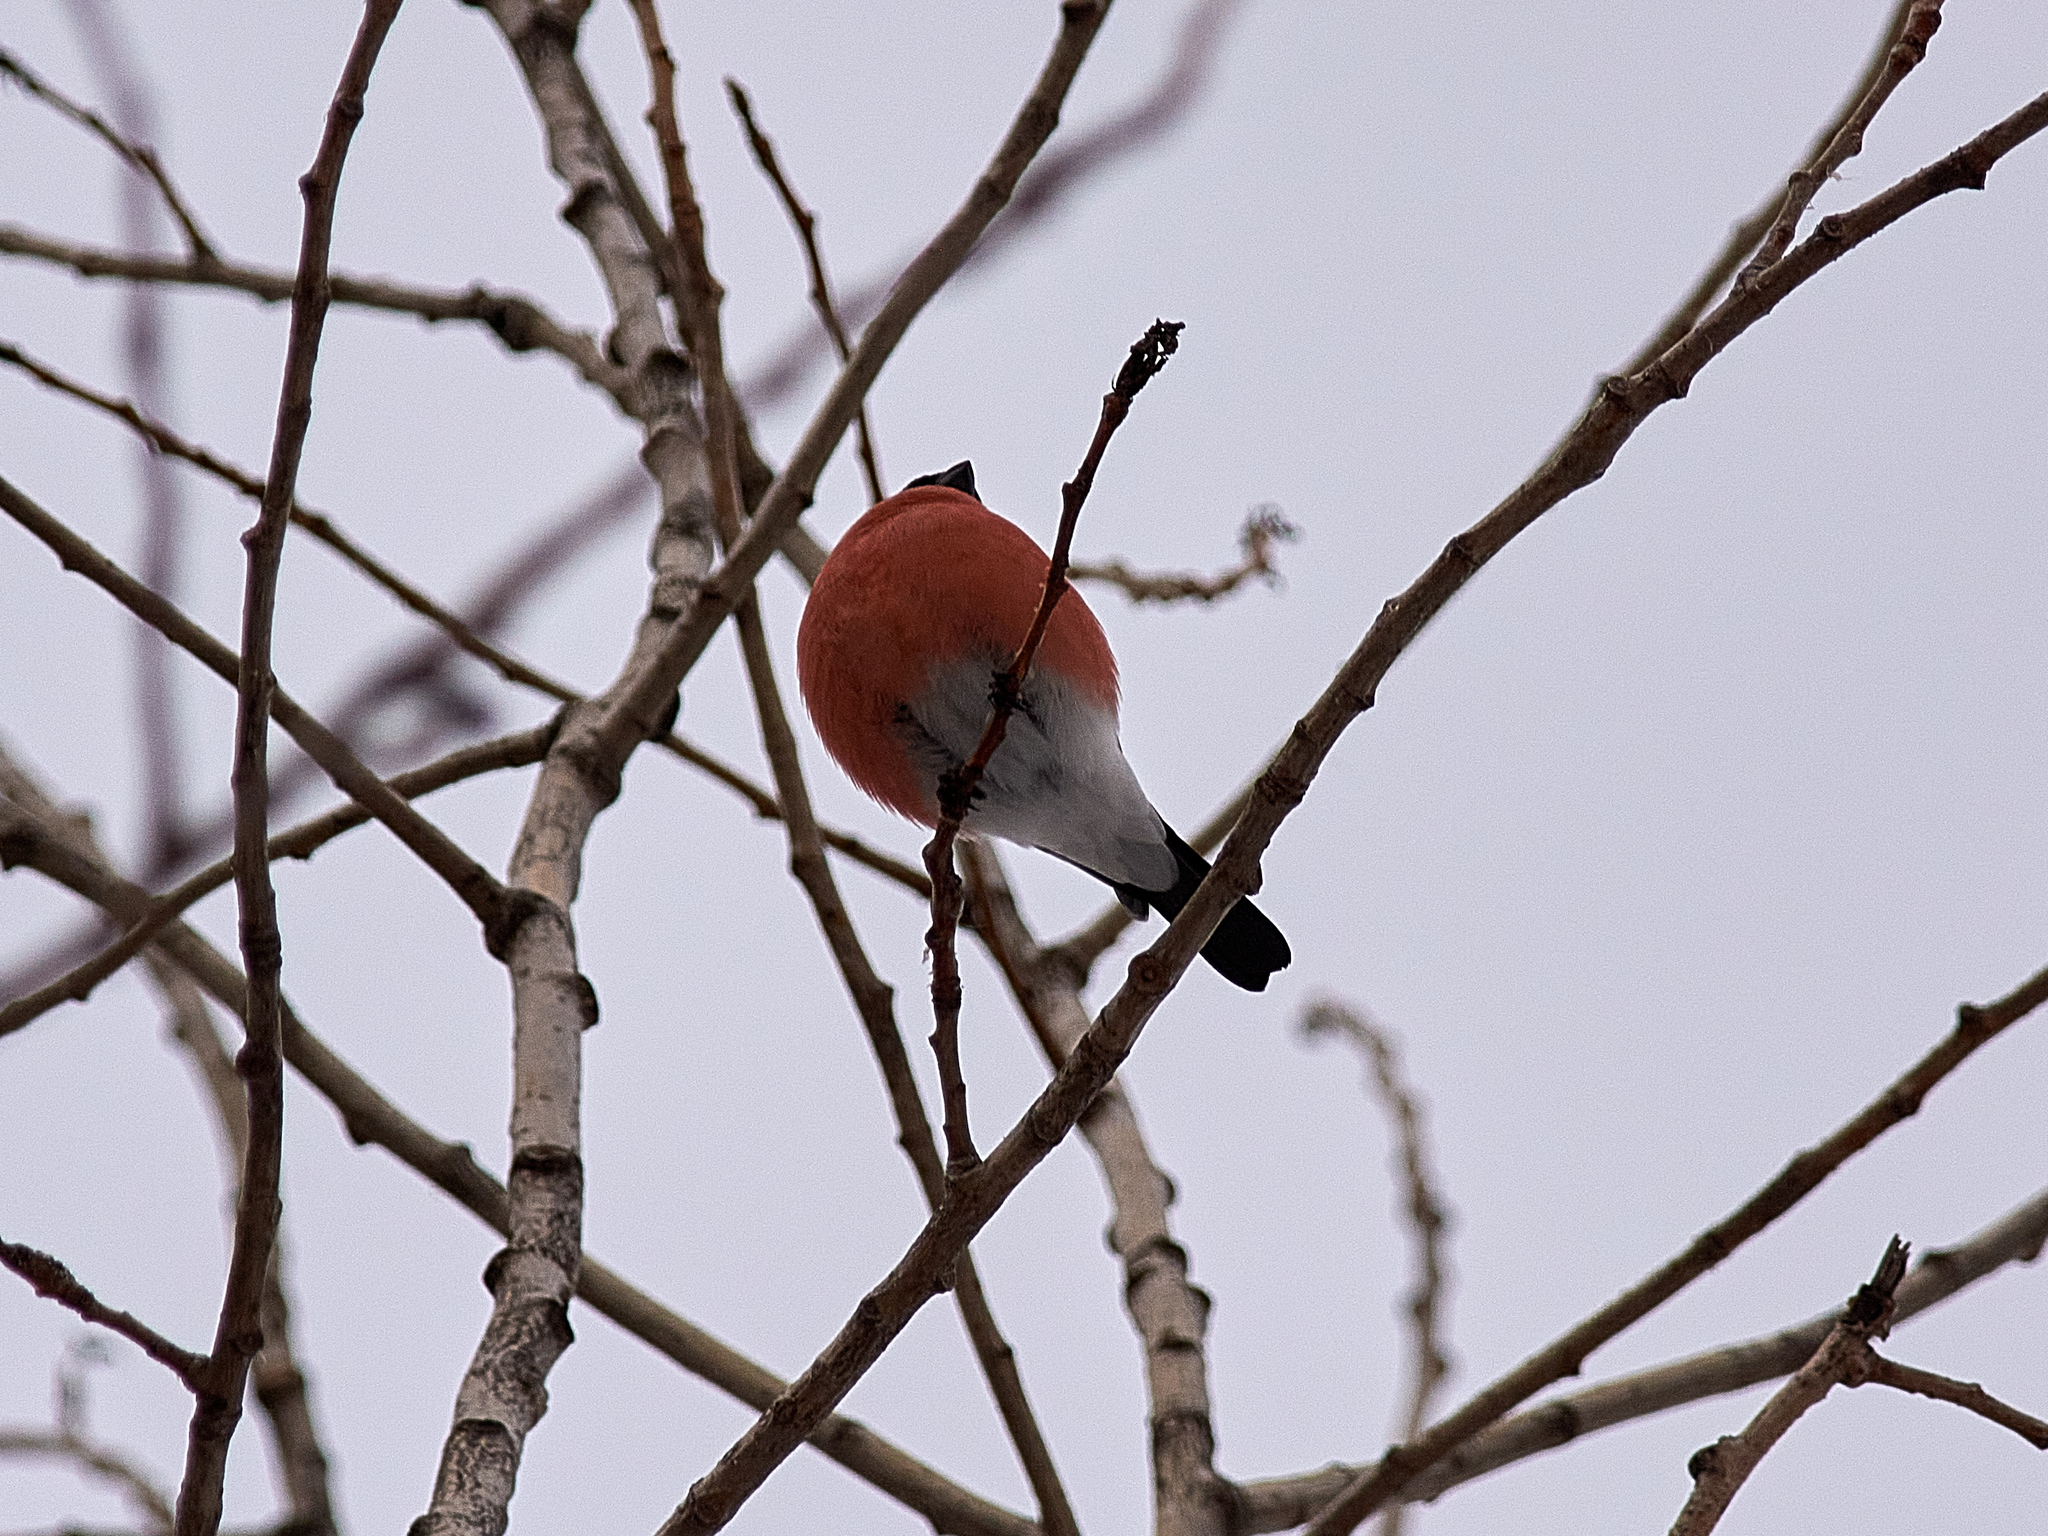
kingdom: Animalia
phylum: Chordata
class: Aves
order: Passeriformes
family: Fringillidae
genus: Pyrrhula
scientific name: Pyrrhula pyrrhula
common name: Eurasian bullfinch
